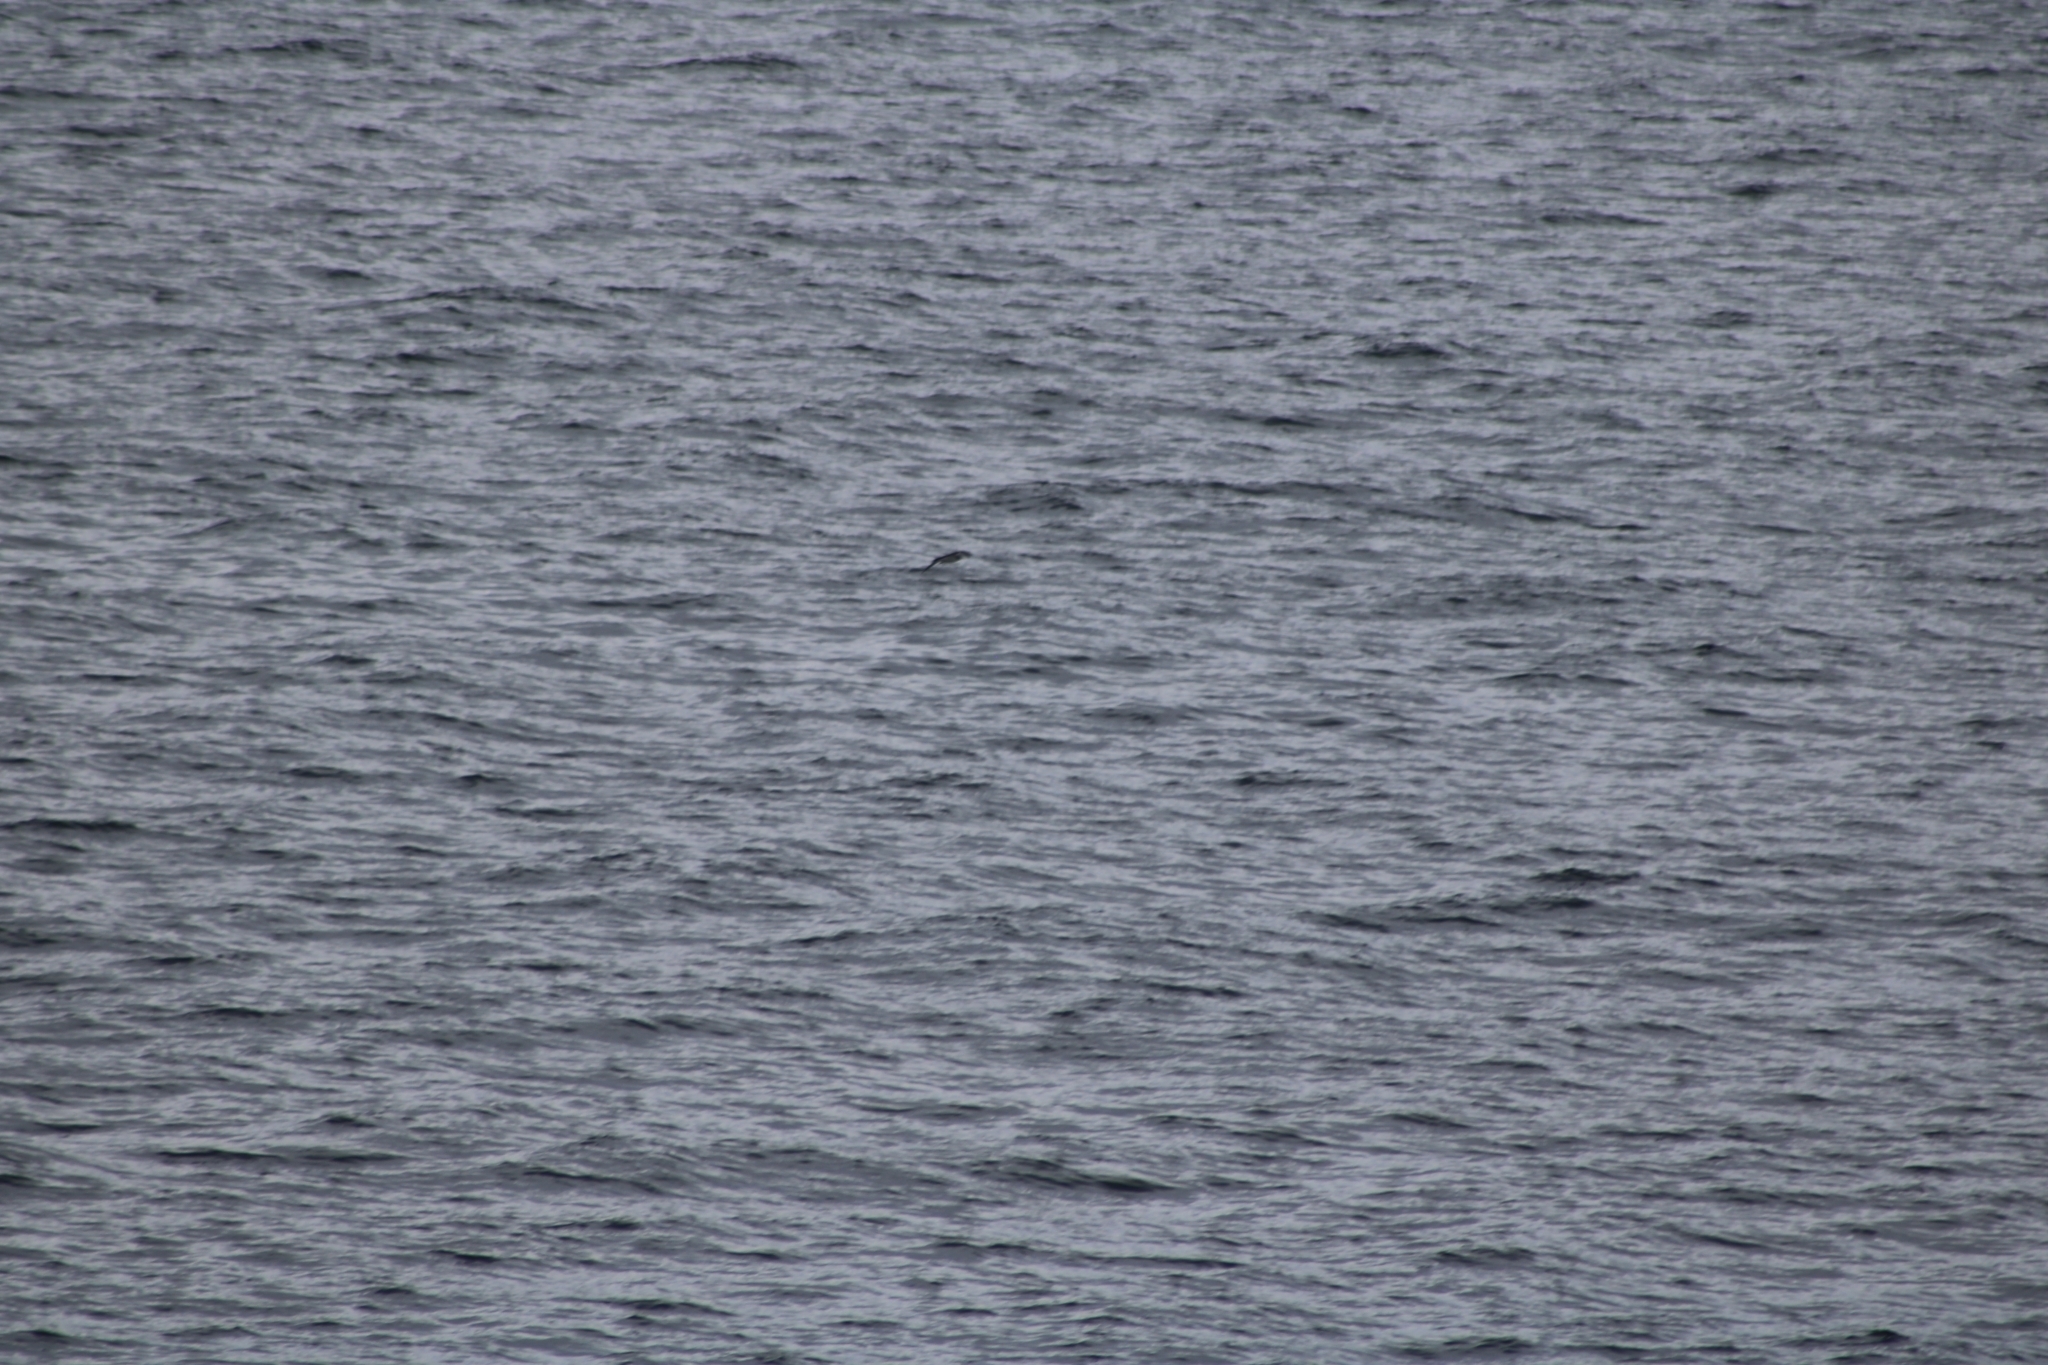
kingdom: Animalia
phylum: Chordata
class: Aves
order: Procellariiformes
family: Procellariidae
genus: Puffinus
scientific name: Puffinus puffinus
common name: Manx shearwater
